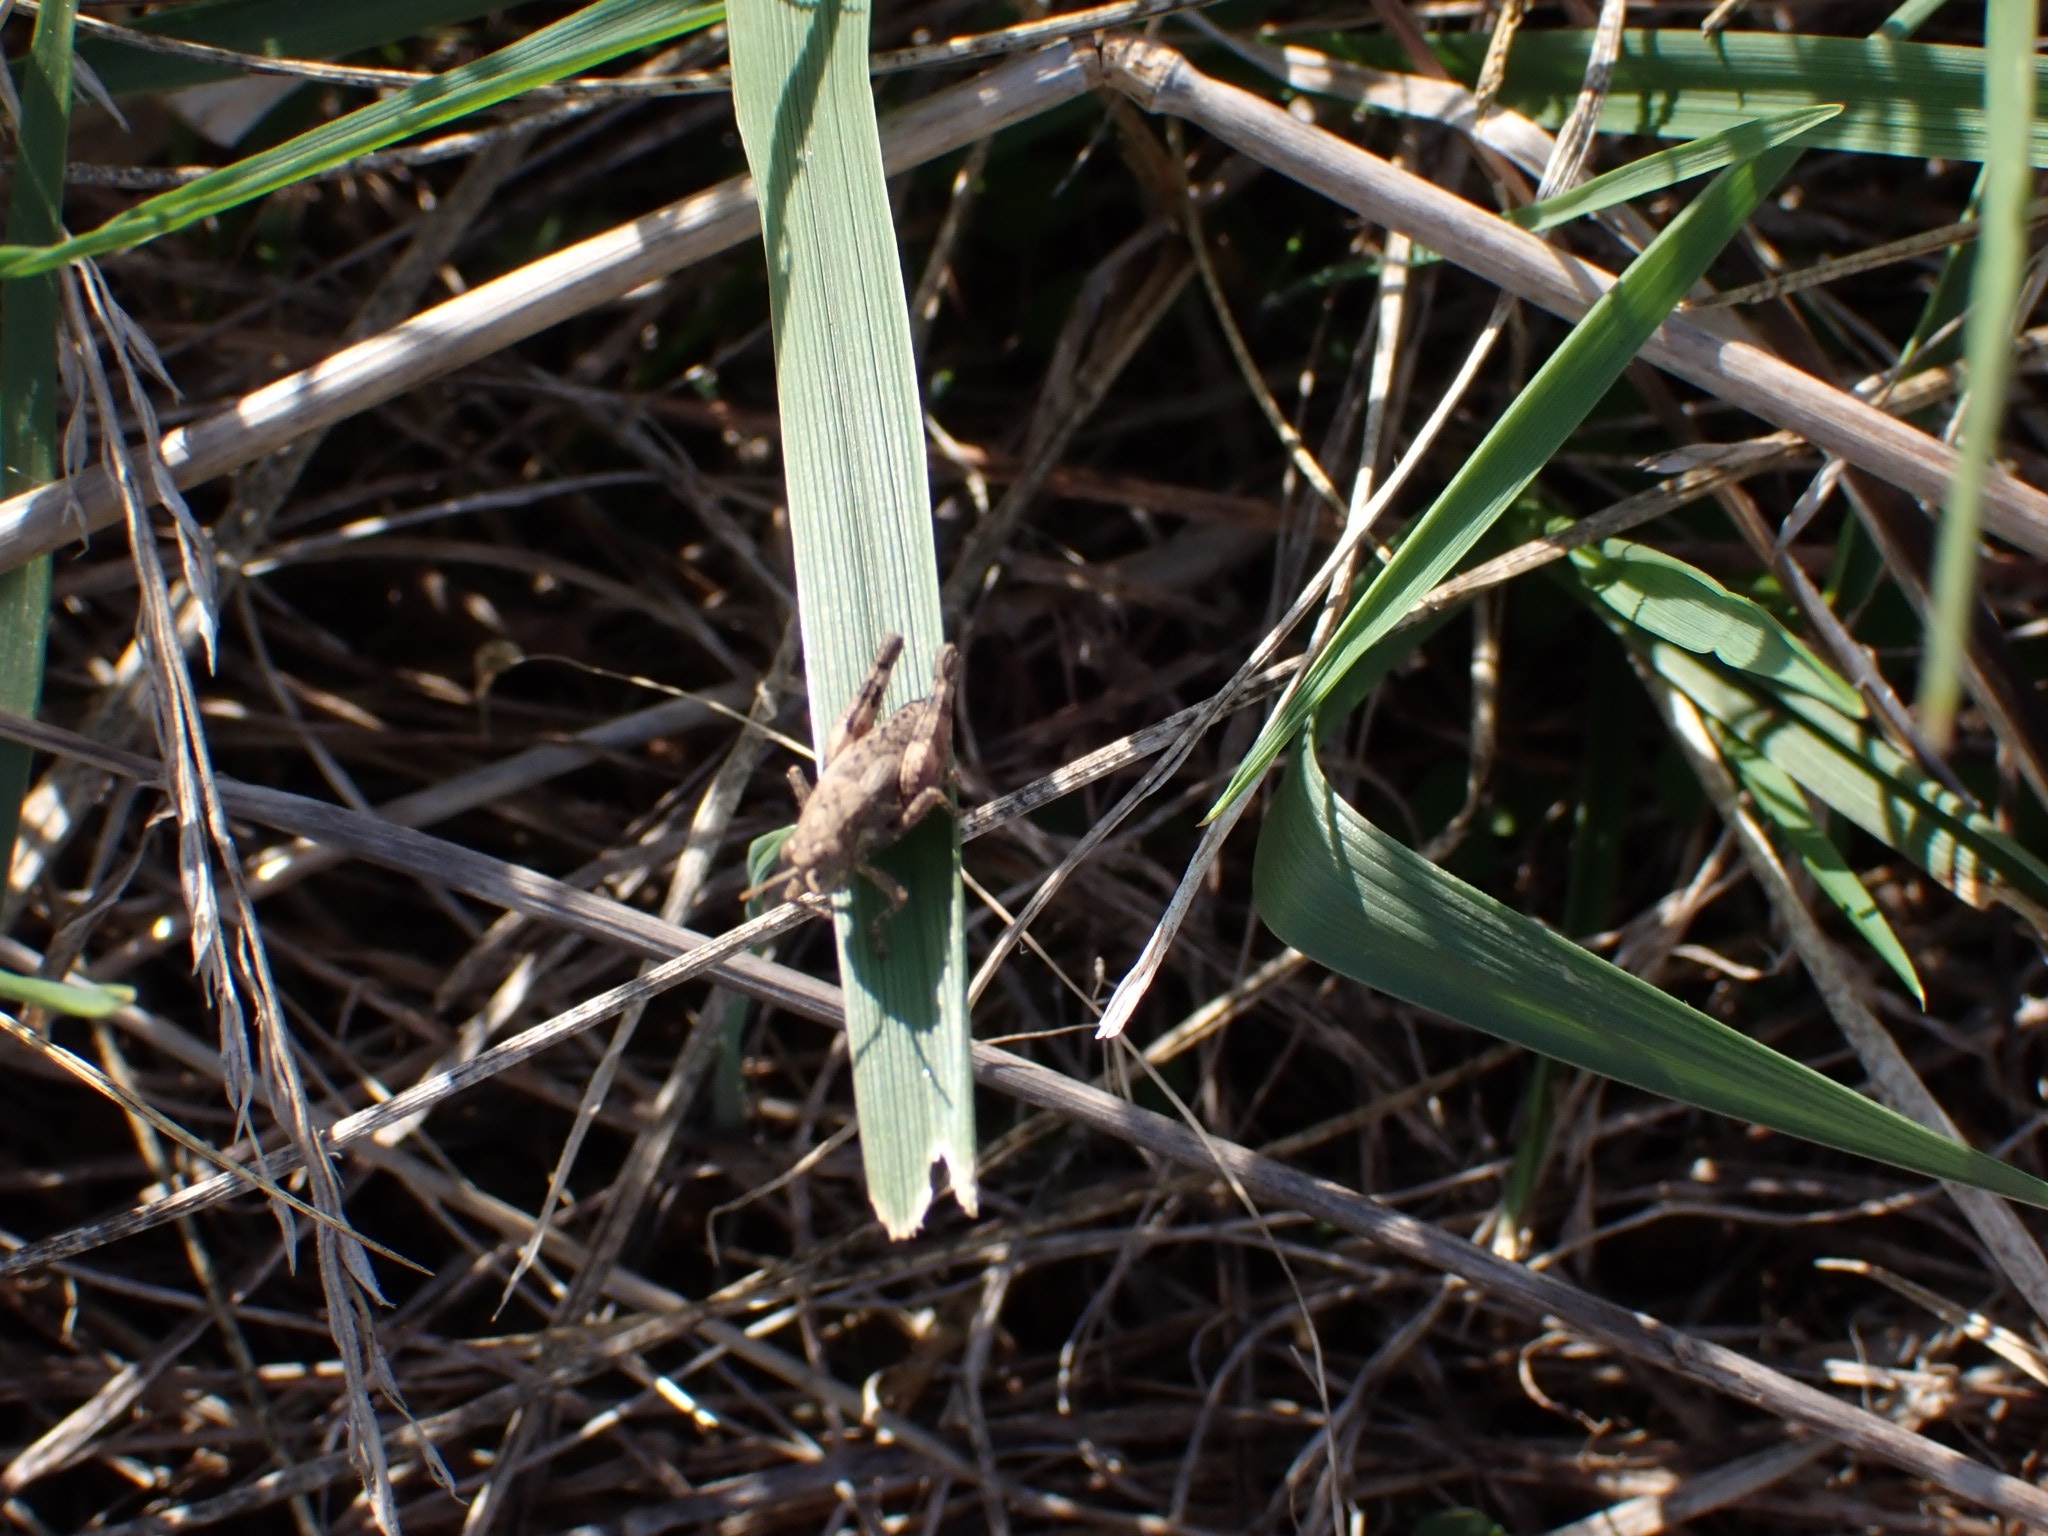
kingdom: Animalia
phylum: Arthropoda
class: Insecta
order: Orthoptera
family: Acrididae
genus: Pezotettix
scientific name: Pezotettix giornae
